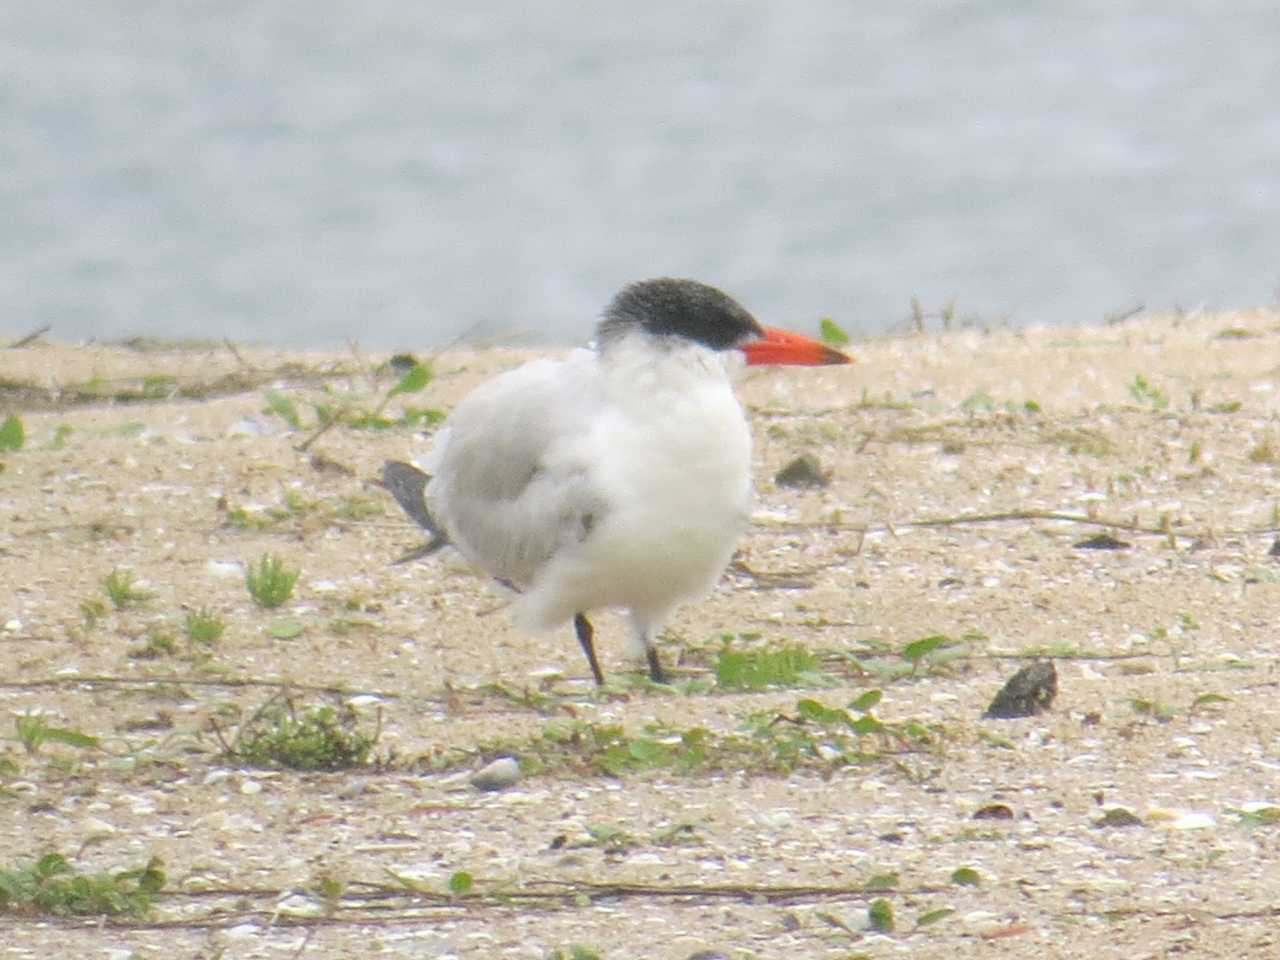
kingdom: Animalia
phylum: Chordata
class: Aves
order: Charadriiformes
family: Laridae
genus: Hydroprogne
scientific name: Hydroprogne caspia
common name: Caspian tern
